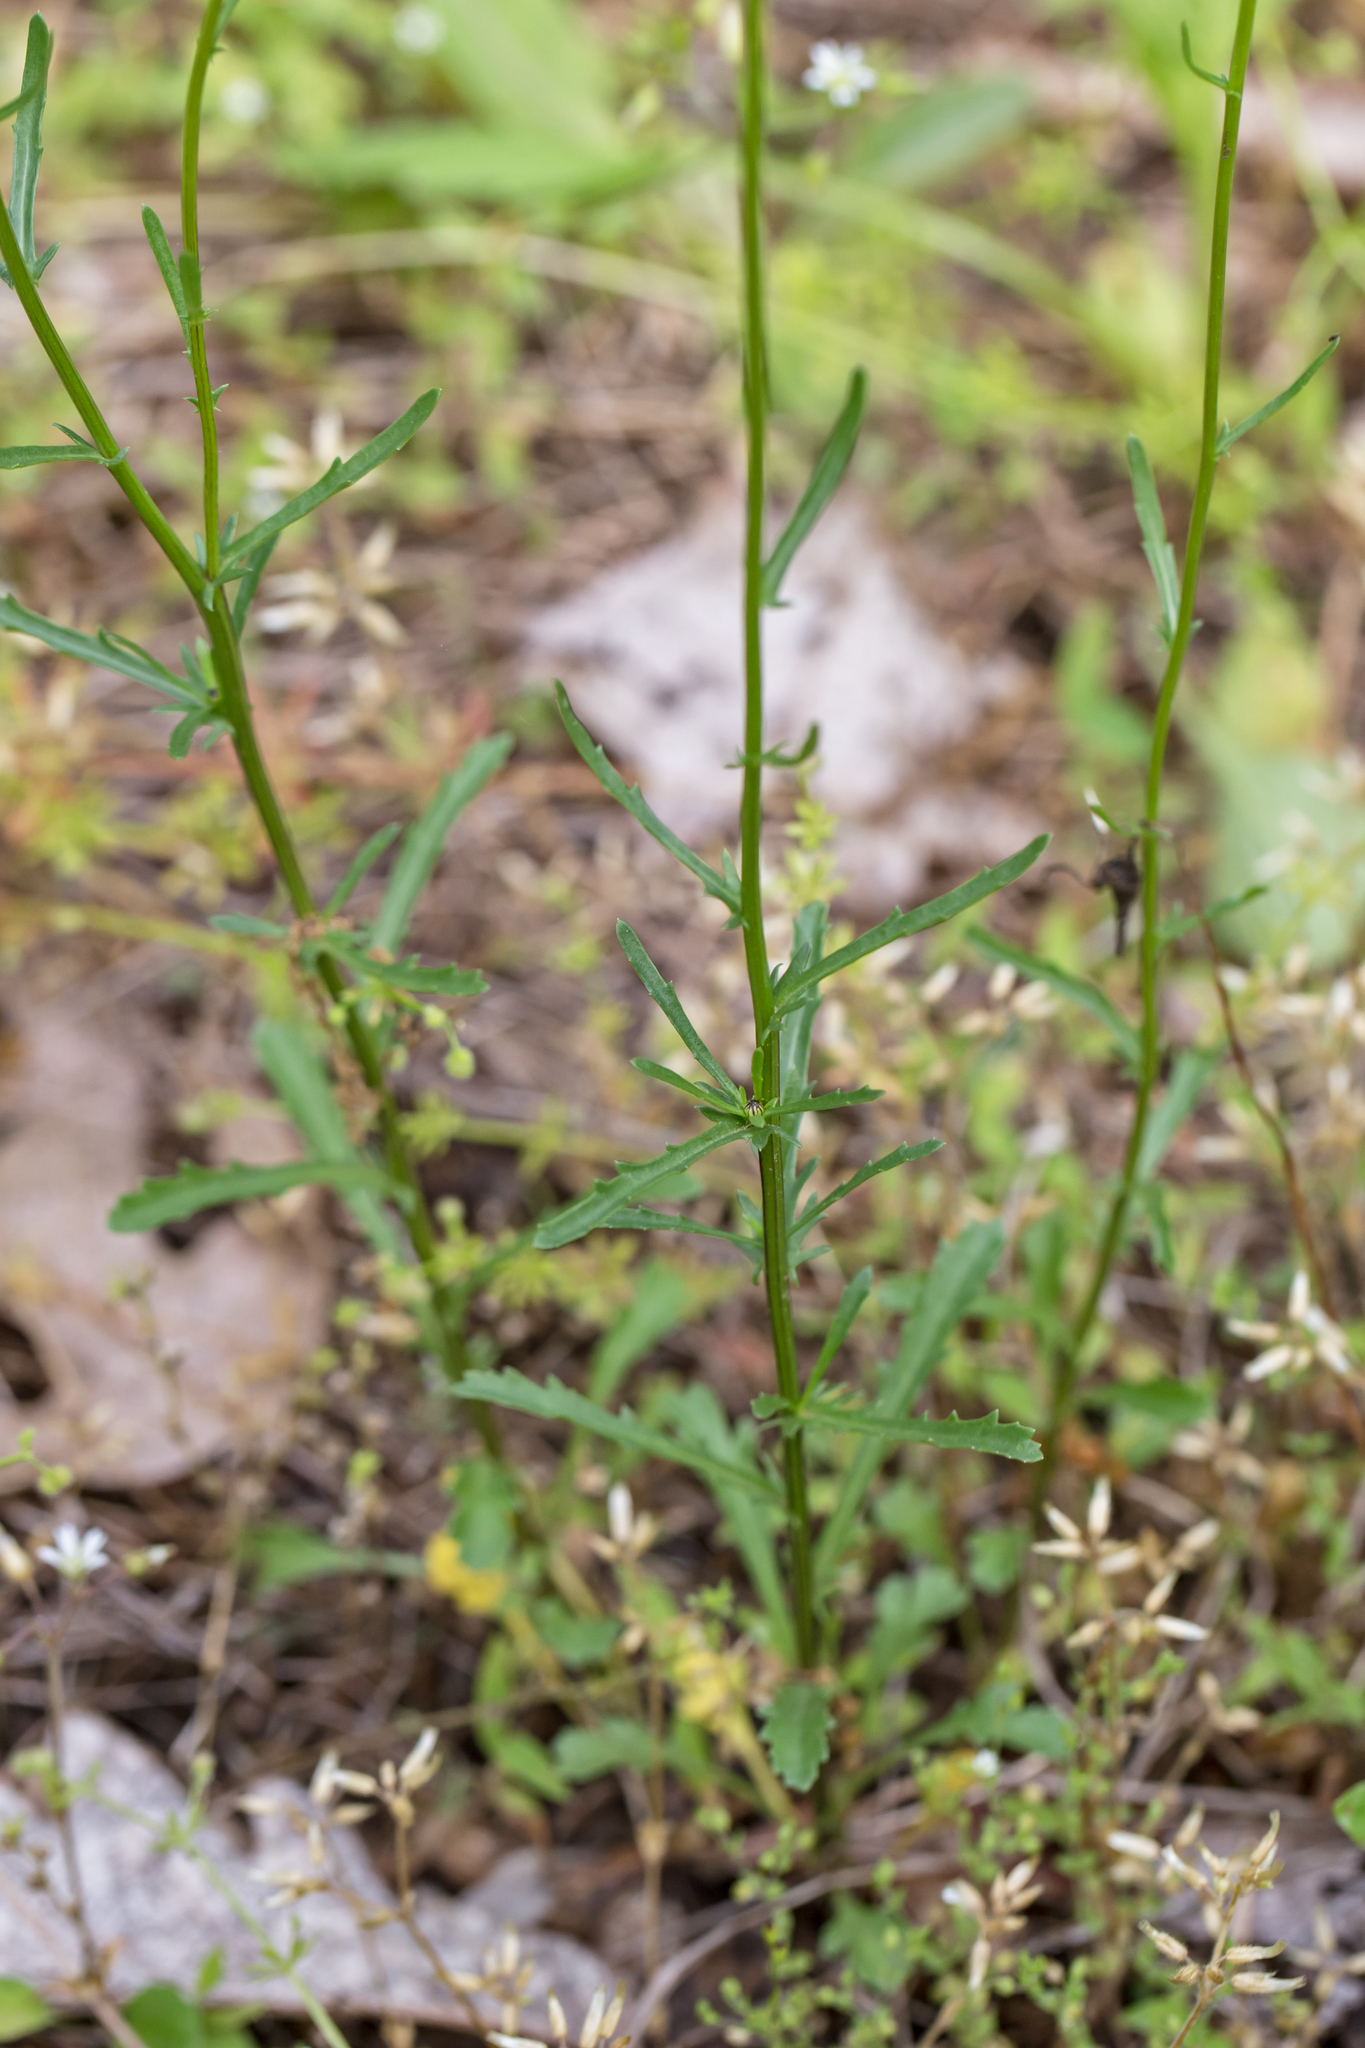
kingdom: Plantae
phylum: Tracheophyta
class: Magnoliopsida
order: Asterales
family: Asteraceae
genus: Leucanthemum
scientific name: Leucanthemum vulgare
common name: Oxeye daisy
